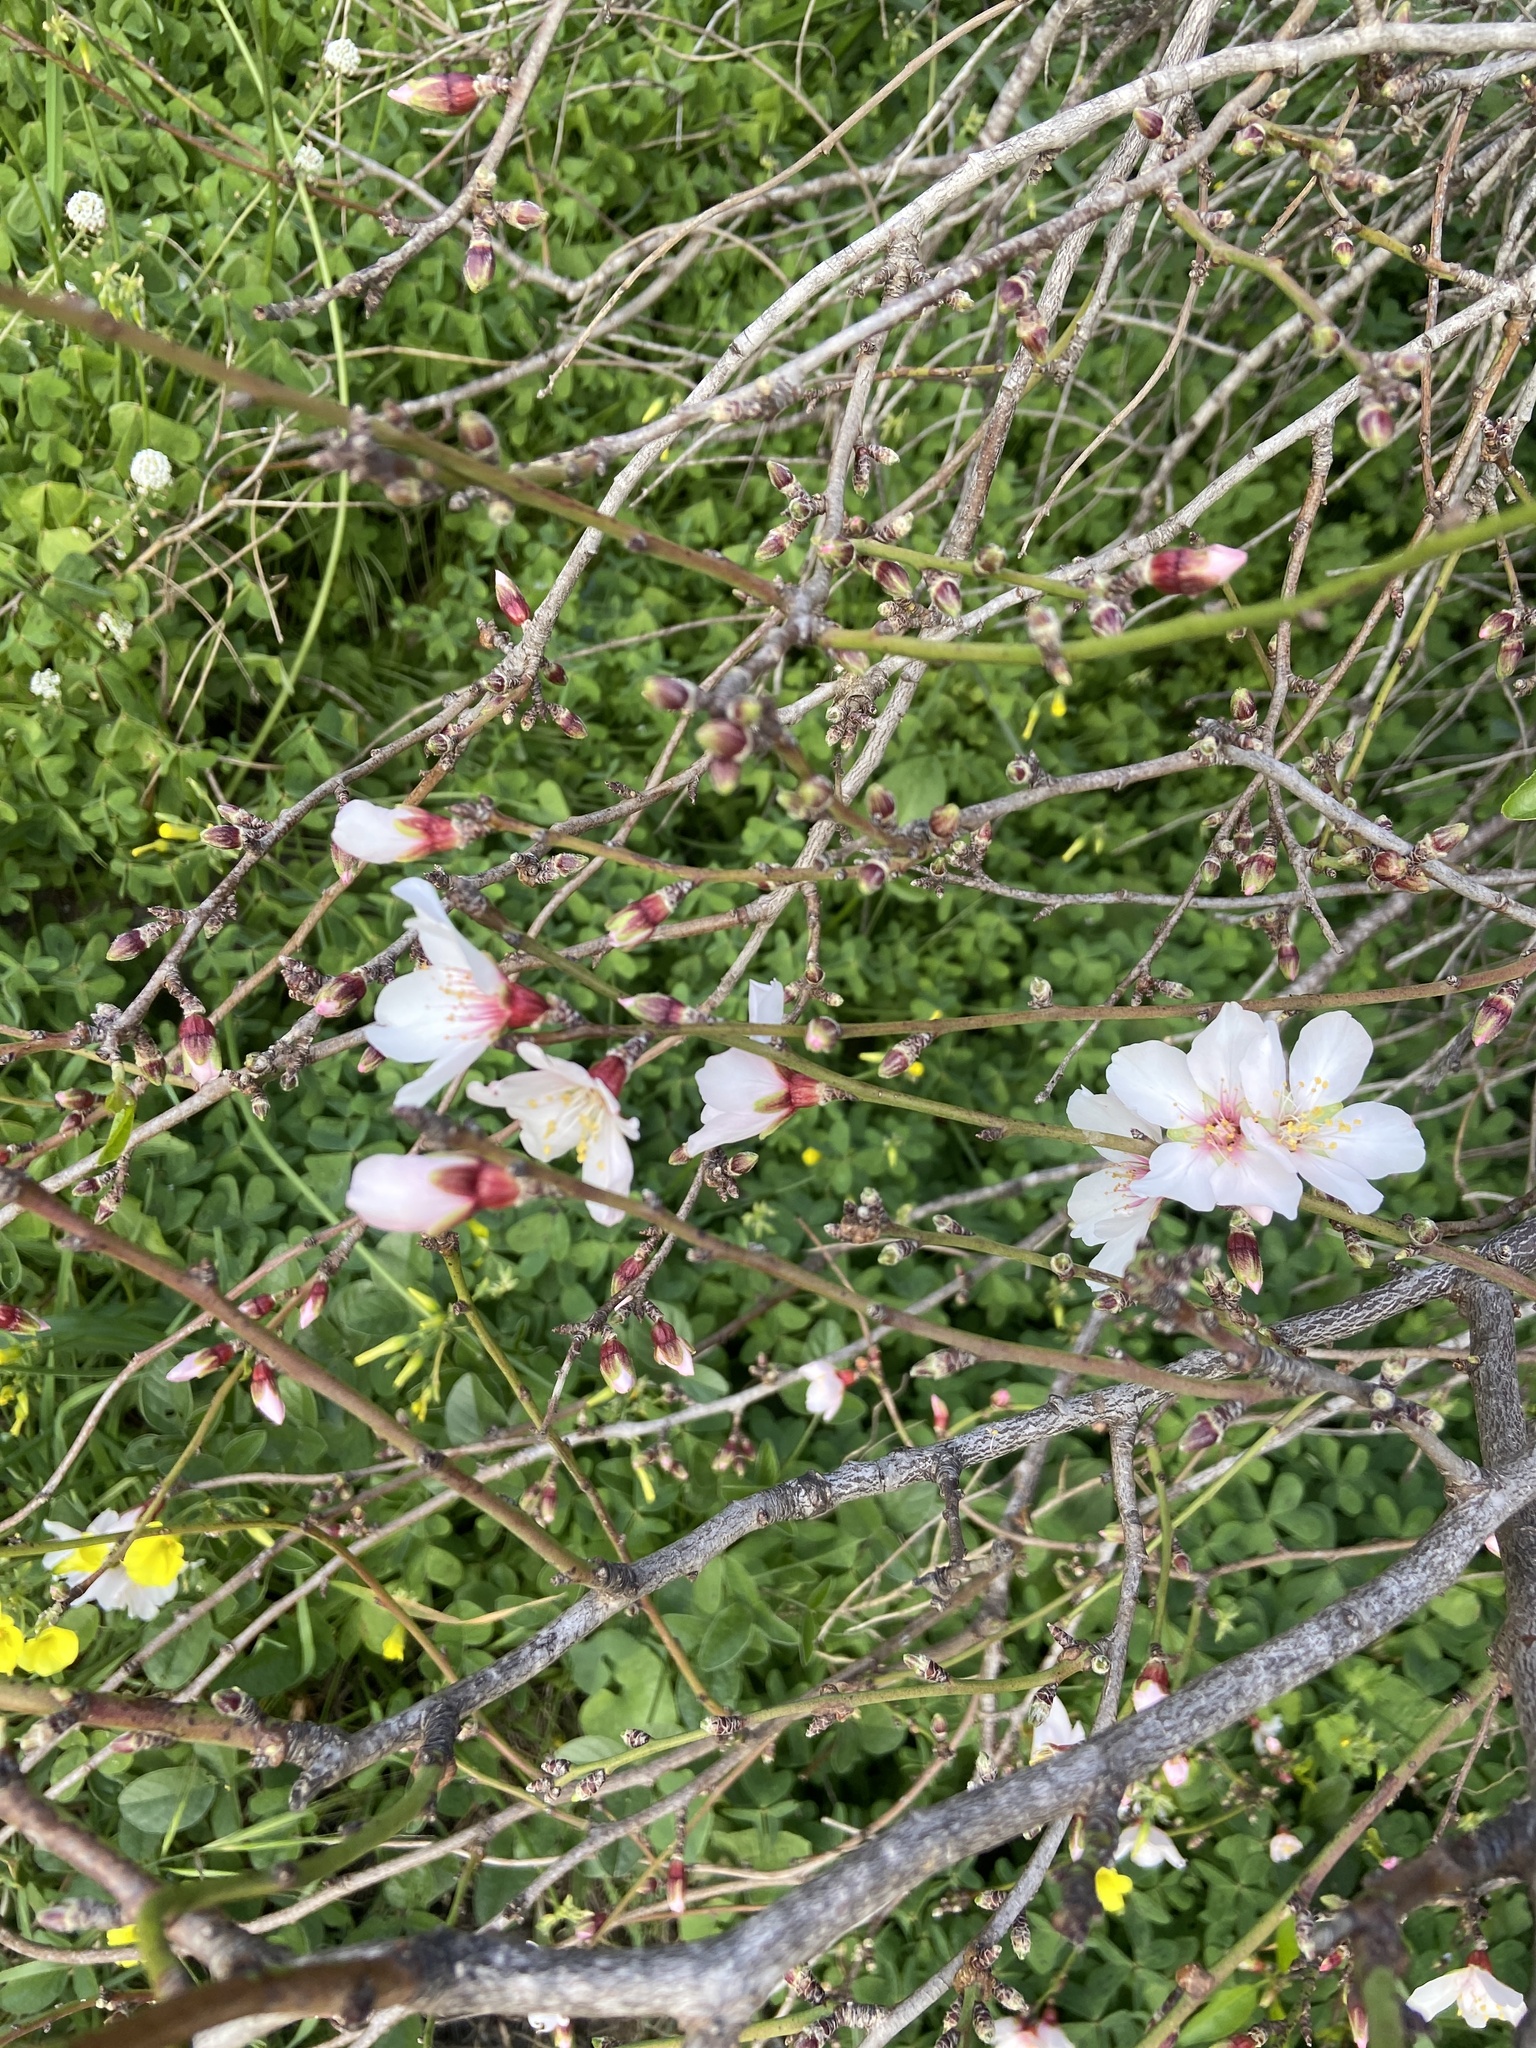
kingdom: Plantae
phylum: Tracheophyta
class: Magnoliopsida
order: Rosales
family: Rosaceae
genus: Prunus
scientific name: Prunus amygdalus
